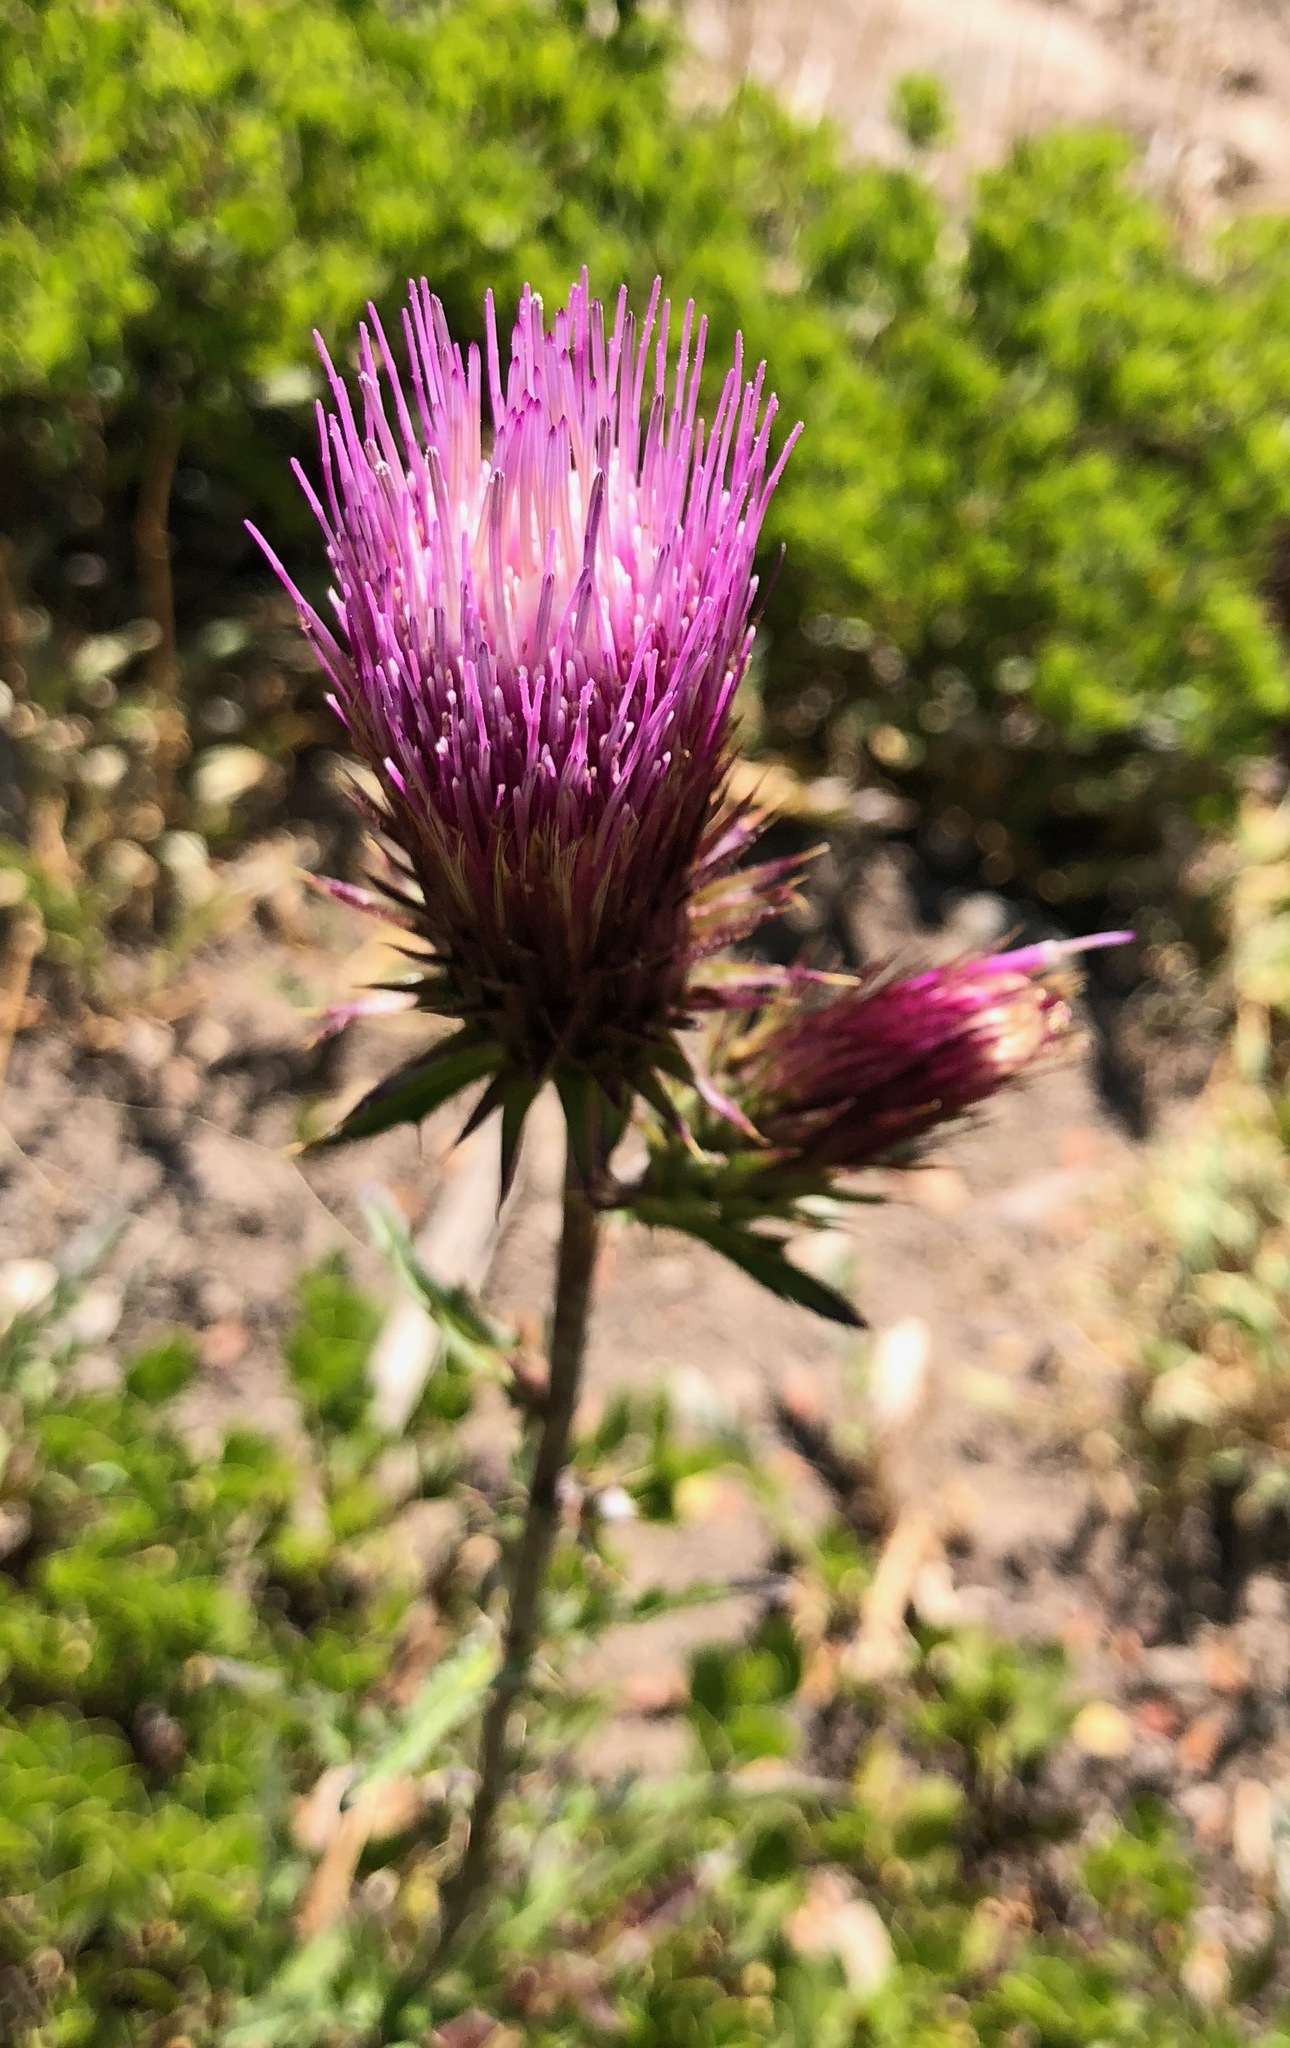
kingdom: Plantae
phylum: Tracheophyta
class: Magnoliopsida
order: Asterales
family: Asteraceae
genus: Cirsium
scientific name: Cirsium andersonii
